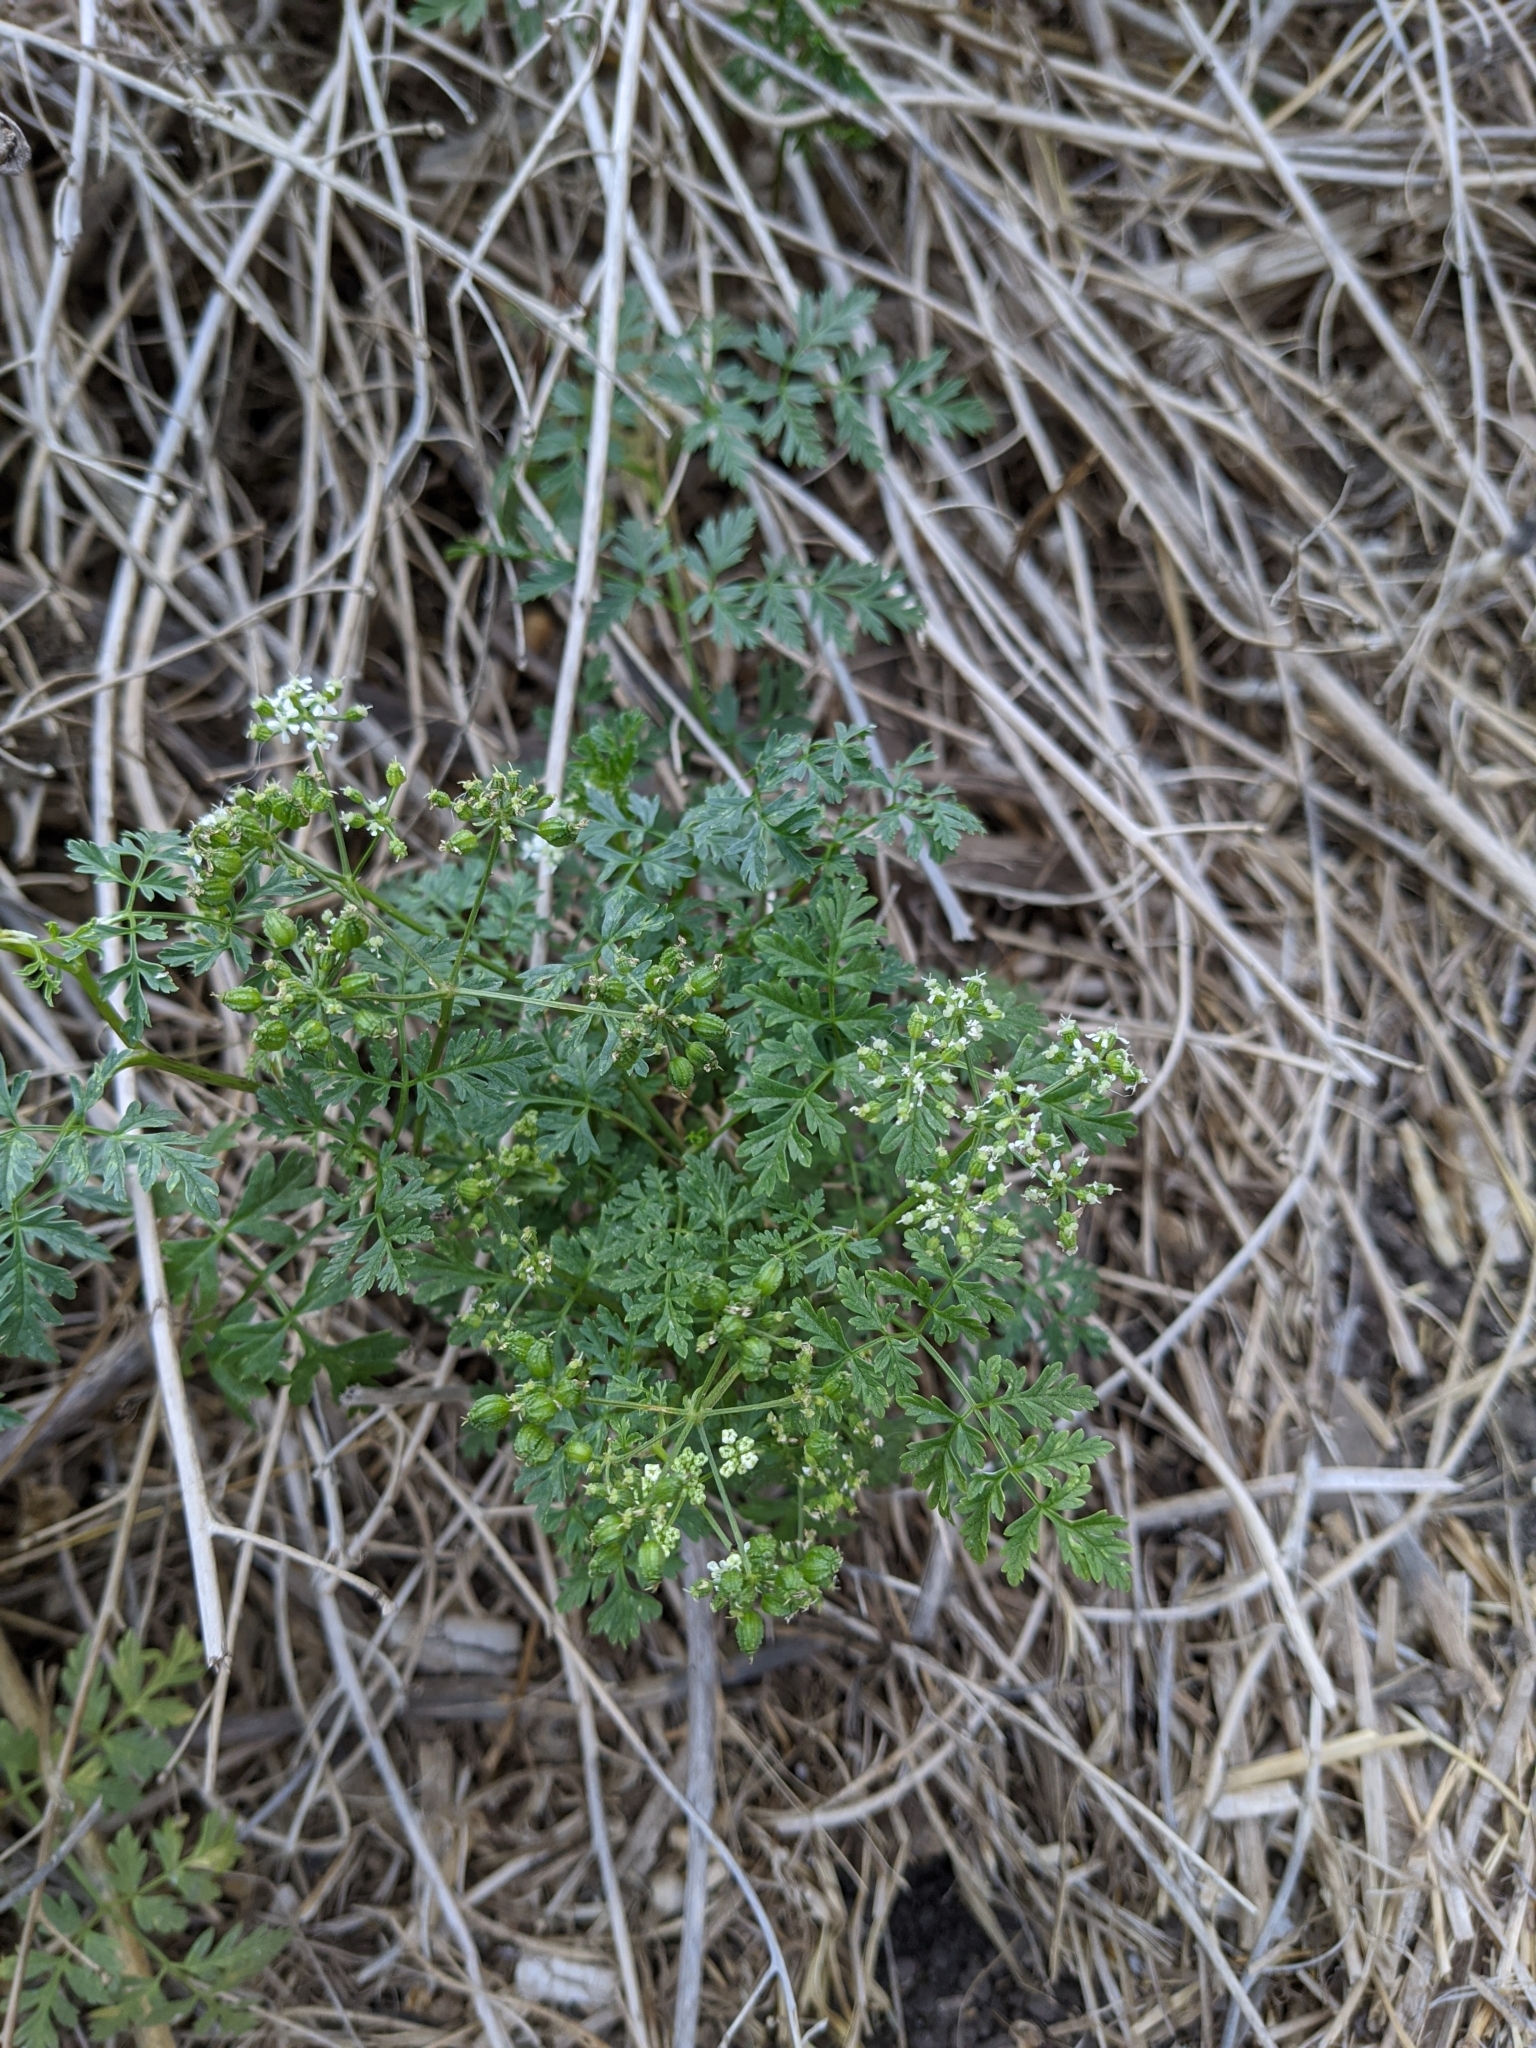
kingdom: Plantae
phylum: Tracheophyta
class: Magnoliopsida
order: Apiales
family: Apiaceae
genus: Conium
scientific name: Conium maculatum
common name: Hemlock
